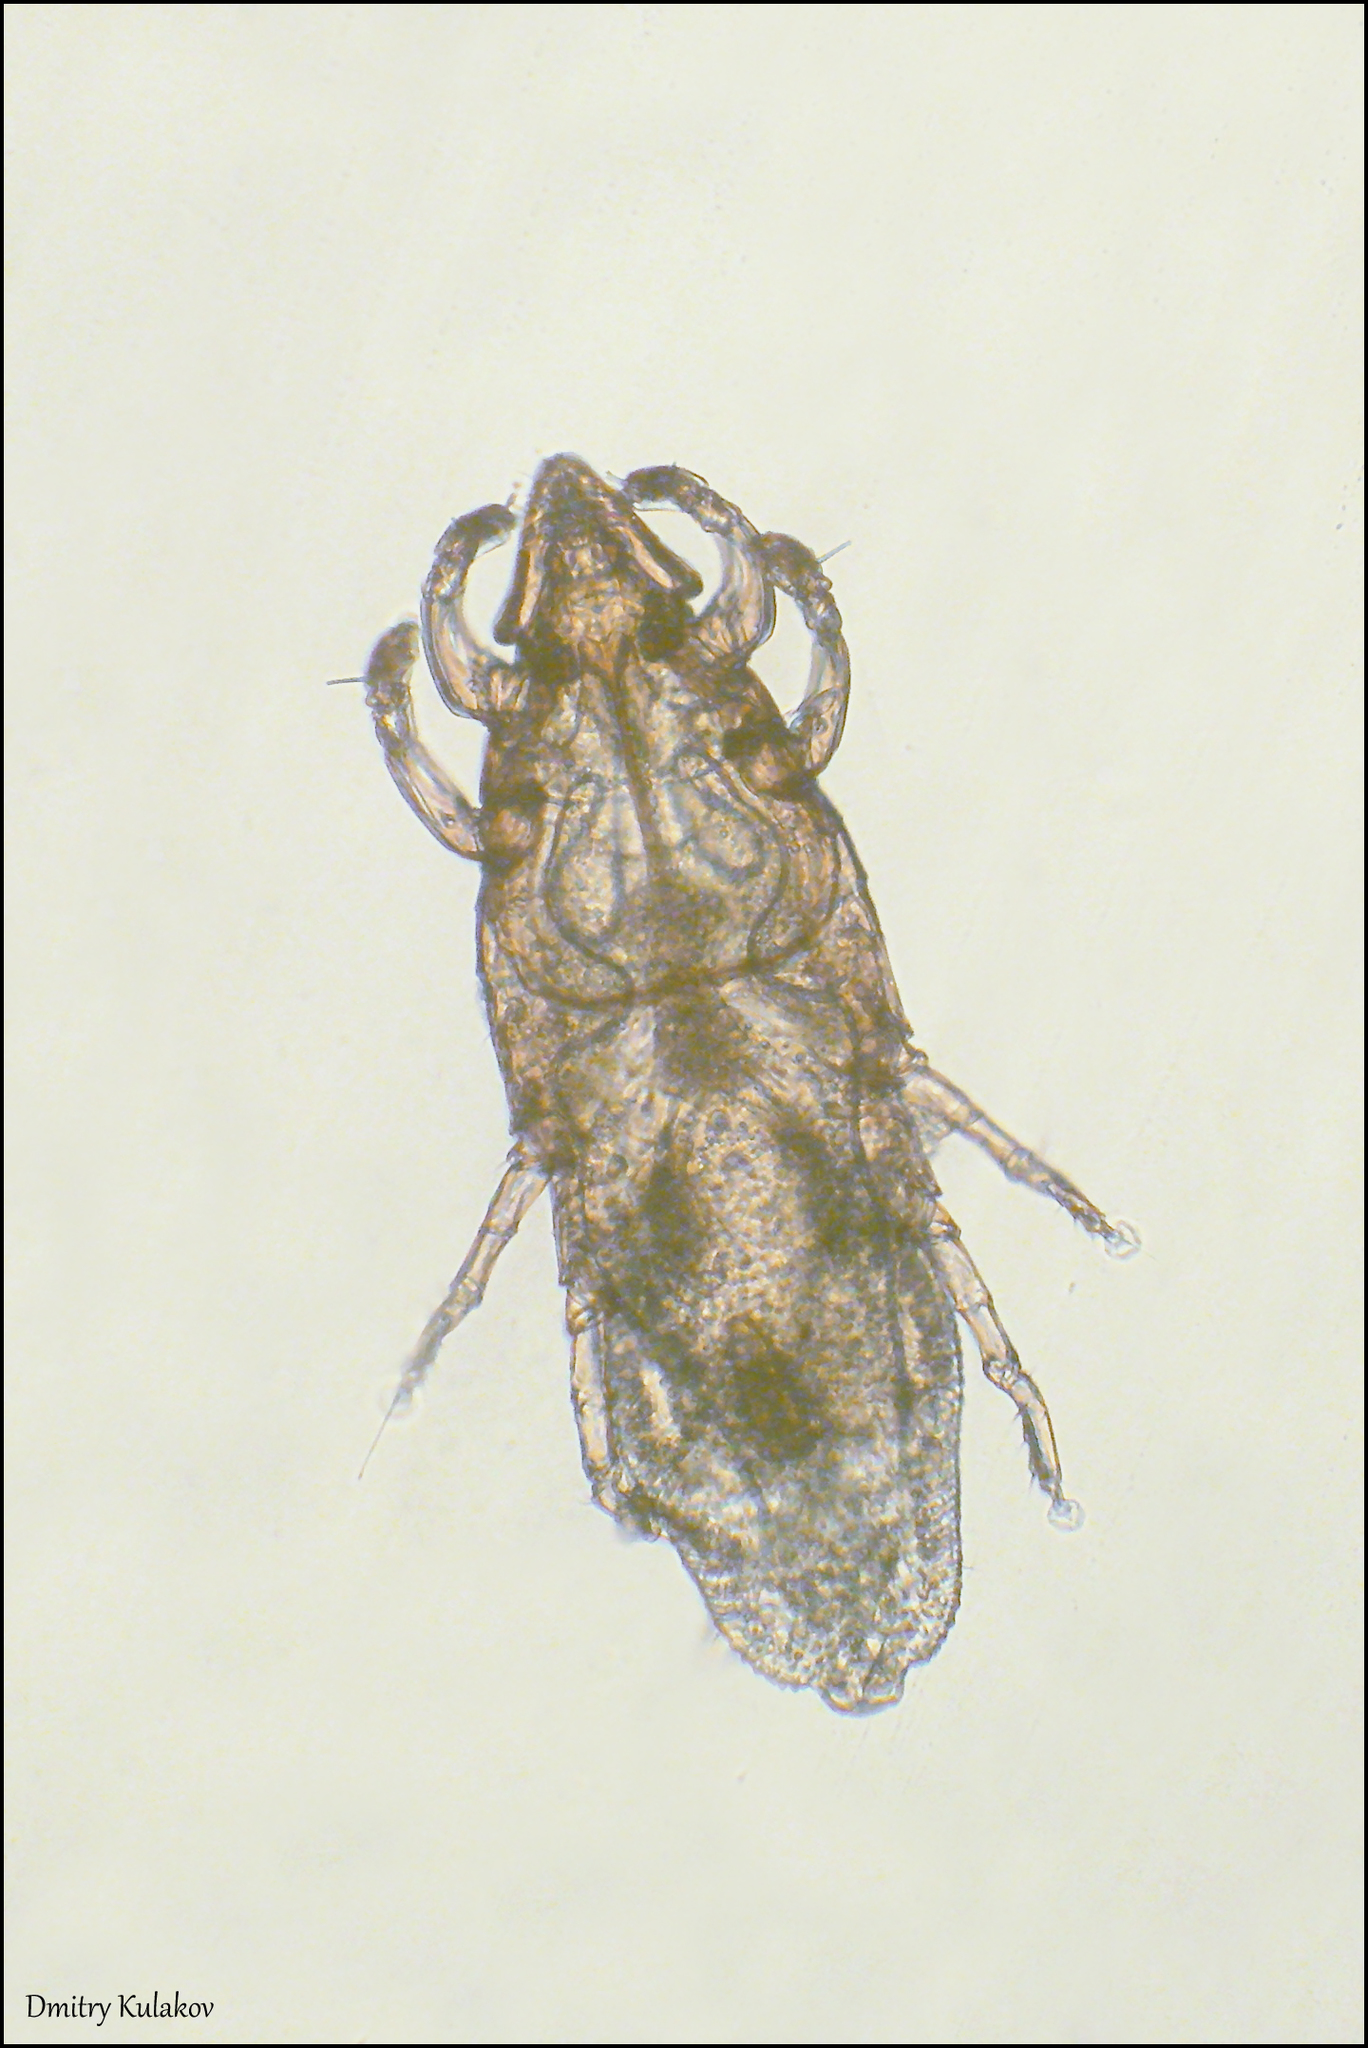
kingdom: Animalia
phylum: Arthropoda
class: Arachnida
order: Sarcoptiformes
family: Atopomelidae
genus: Chirodiscoides
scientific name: Chirodiscoides caviae
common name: Mite
